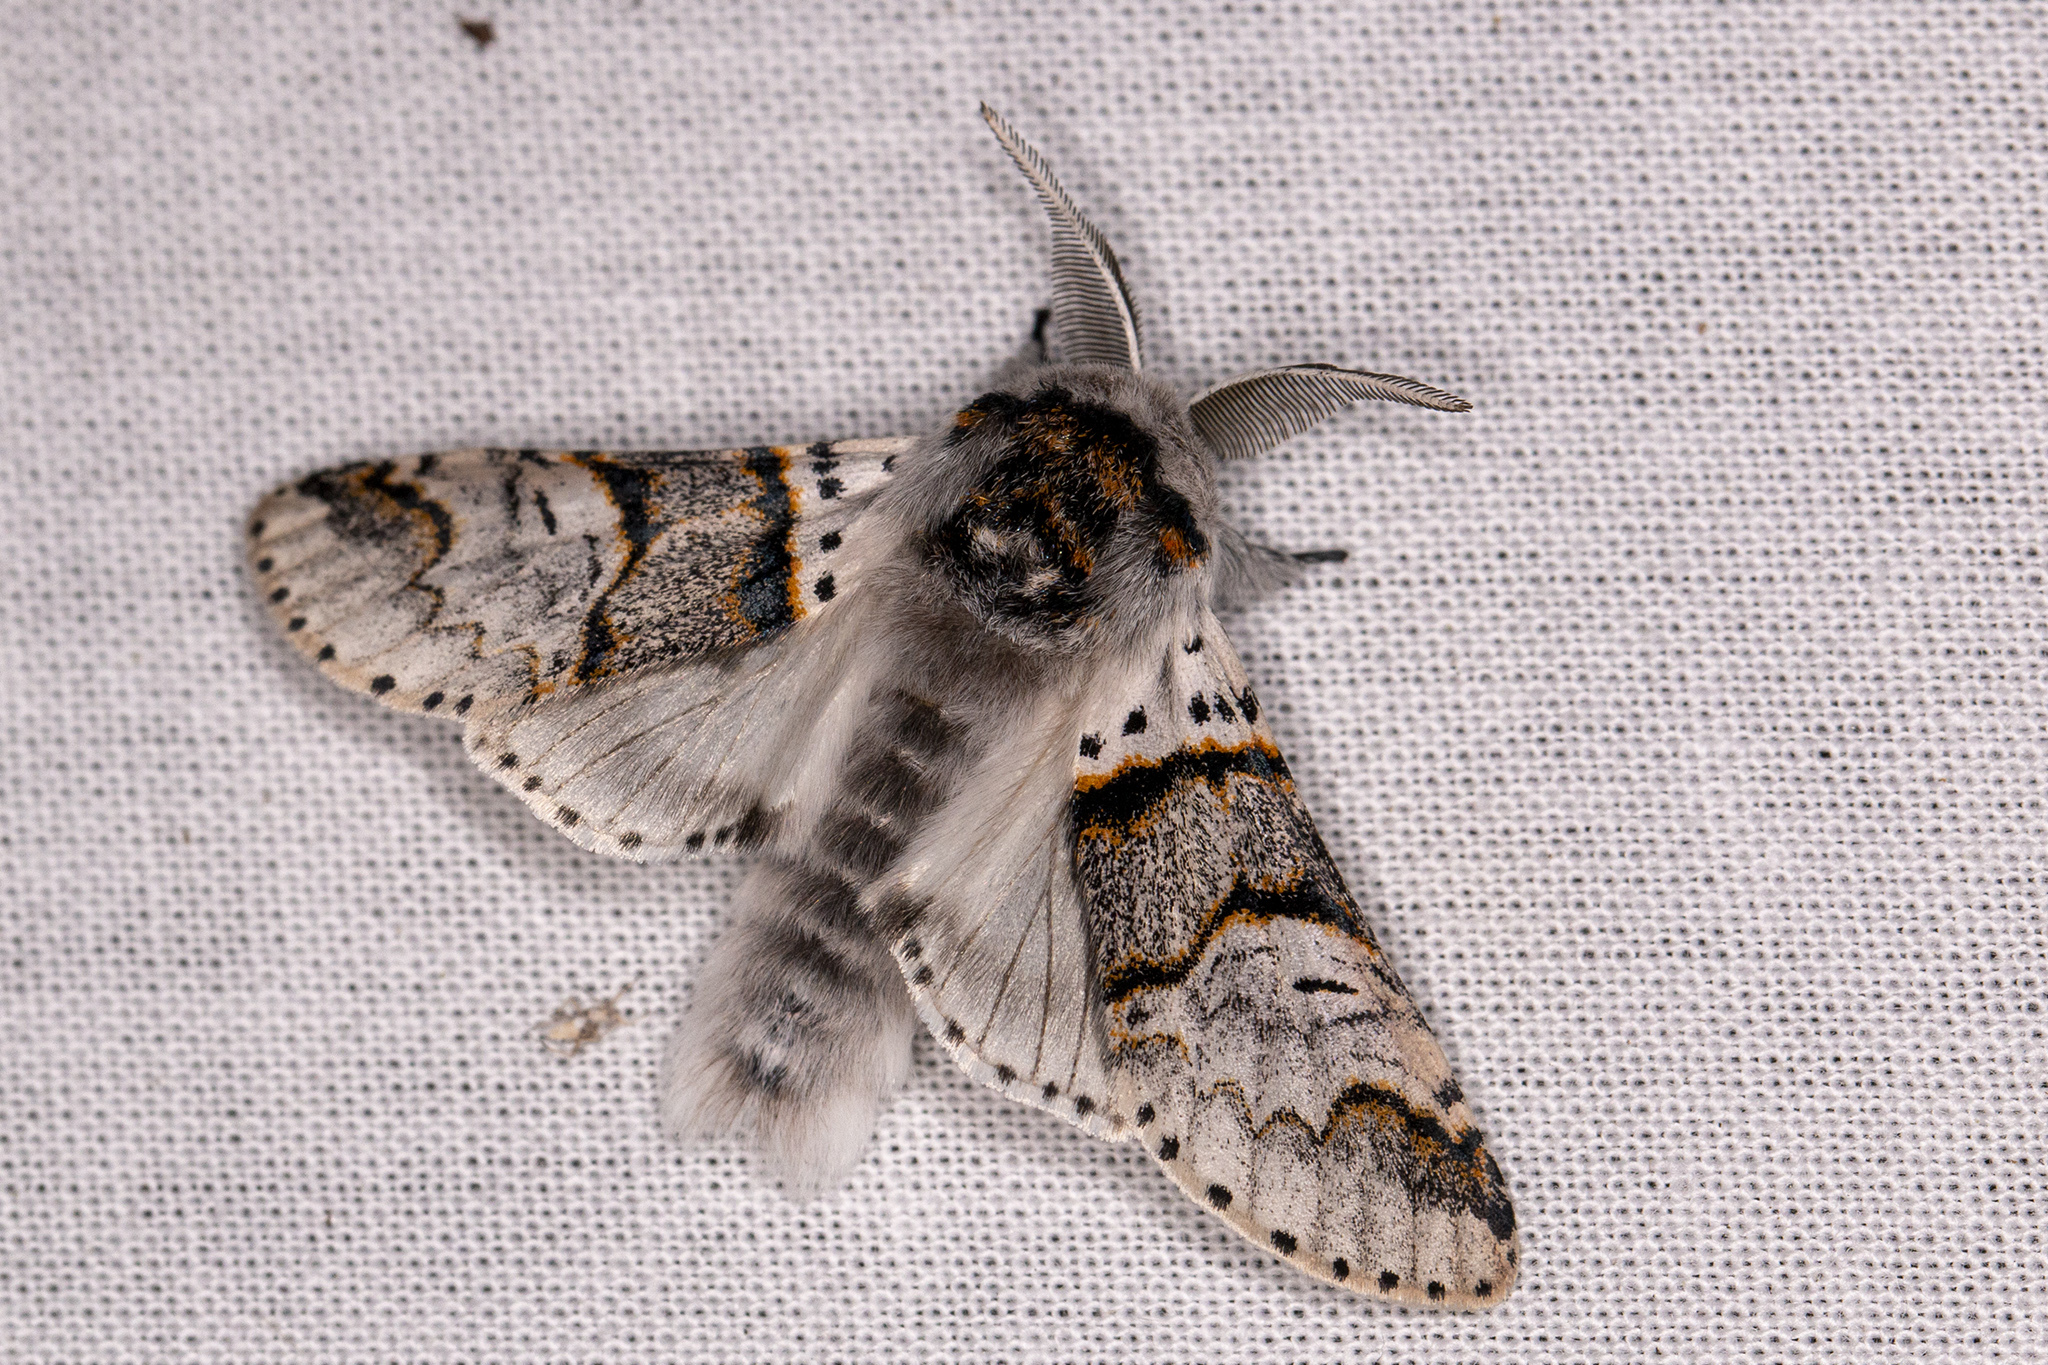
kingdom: Animalia
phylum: Arthropoda
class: Insecta
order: Lepidoptera
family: Notodontidae
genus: Furcula
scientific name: Furcula bifida
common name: Poplar kitten
